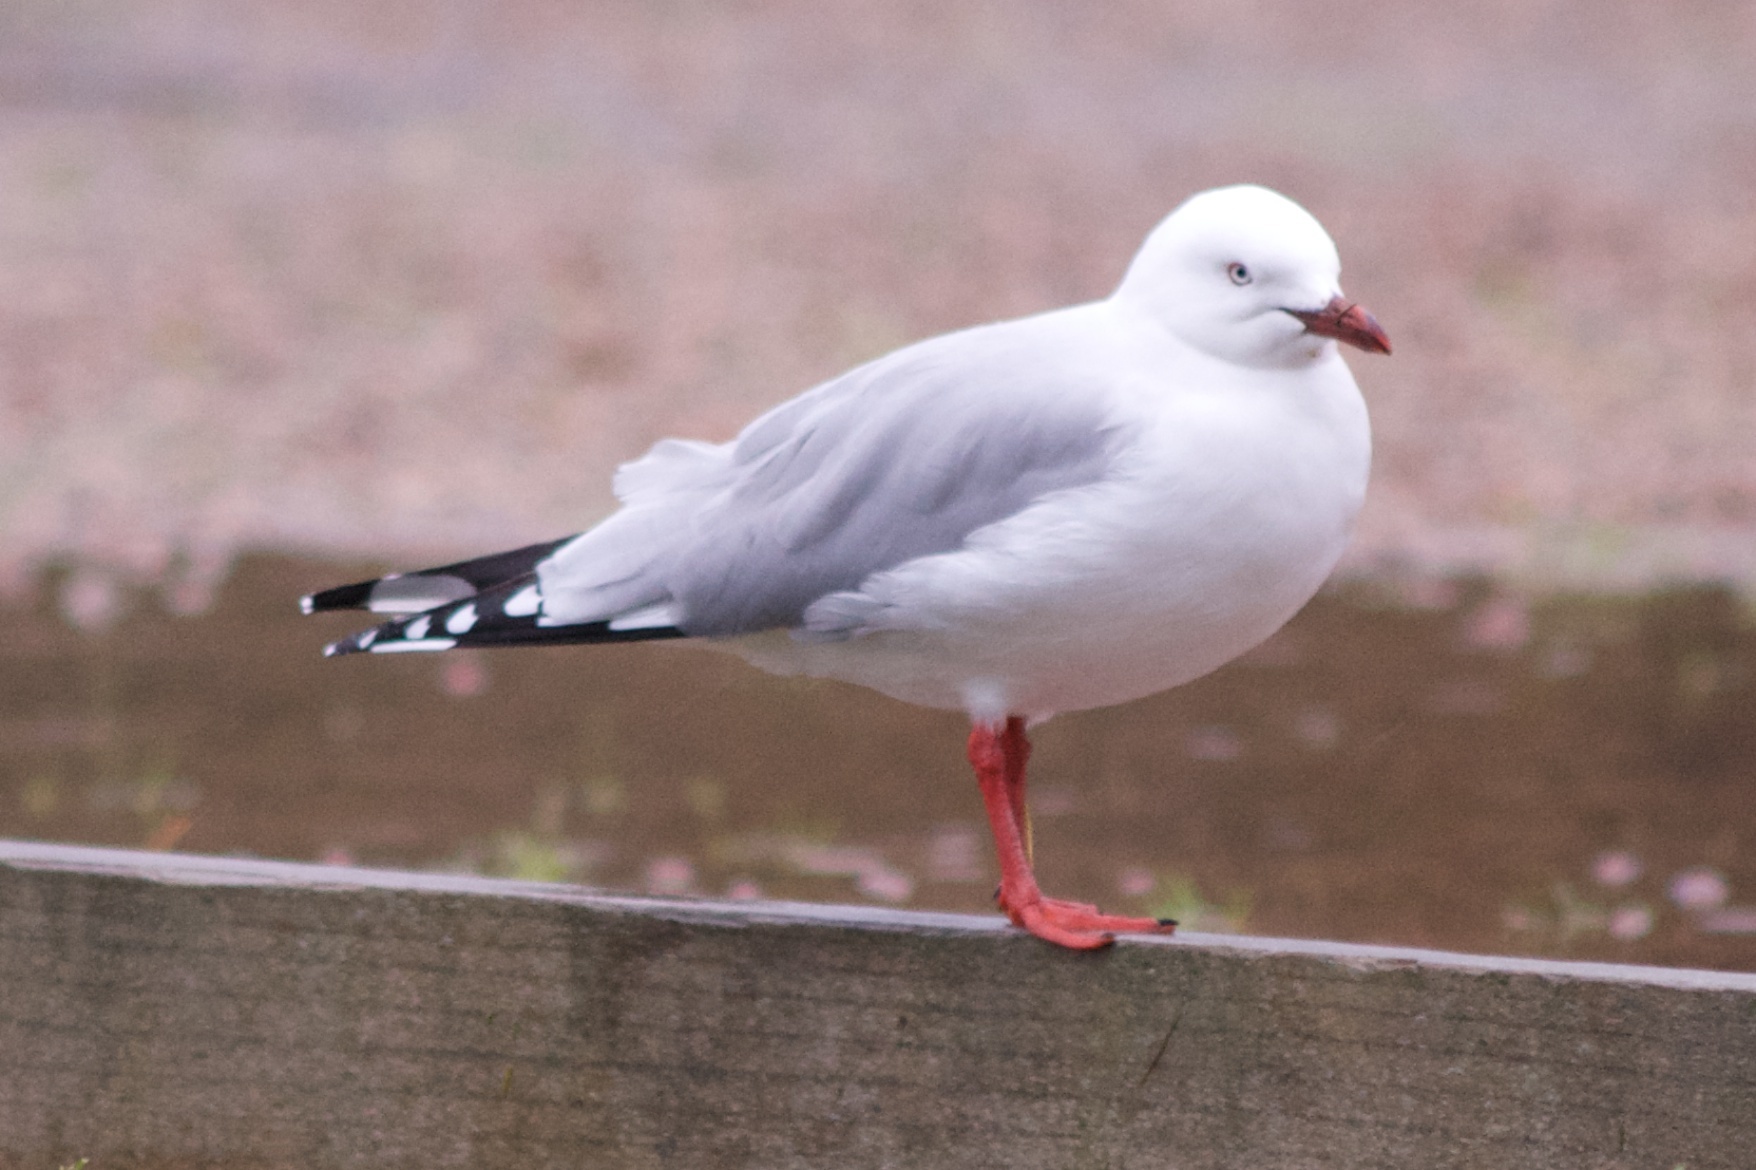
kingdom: Animalia
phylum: Chordata
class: Aves
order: Charadriiformes
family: Laridae
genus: Chroicocephalus
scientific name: Chroicocephalus novaehollandiae
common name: Silver gull
